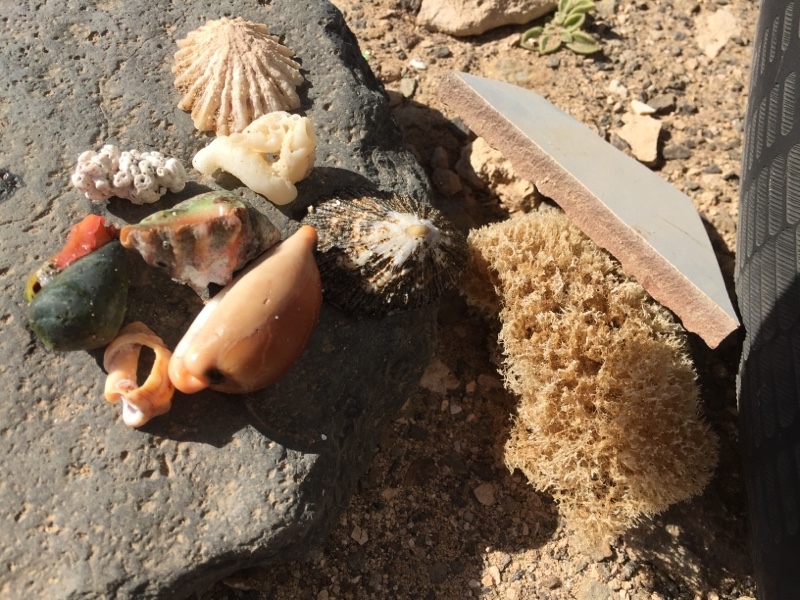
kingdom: Animalia
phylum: Mollusca
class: Gastropoda
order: Littorinimorpha
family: Cypraeidae
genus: Luria
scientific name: Luria lurida
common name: Brown cowry
